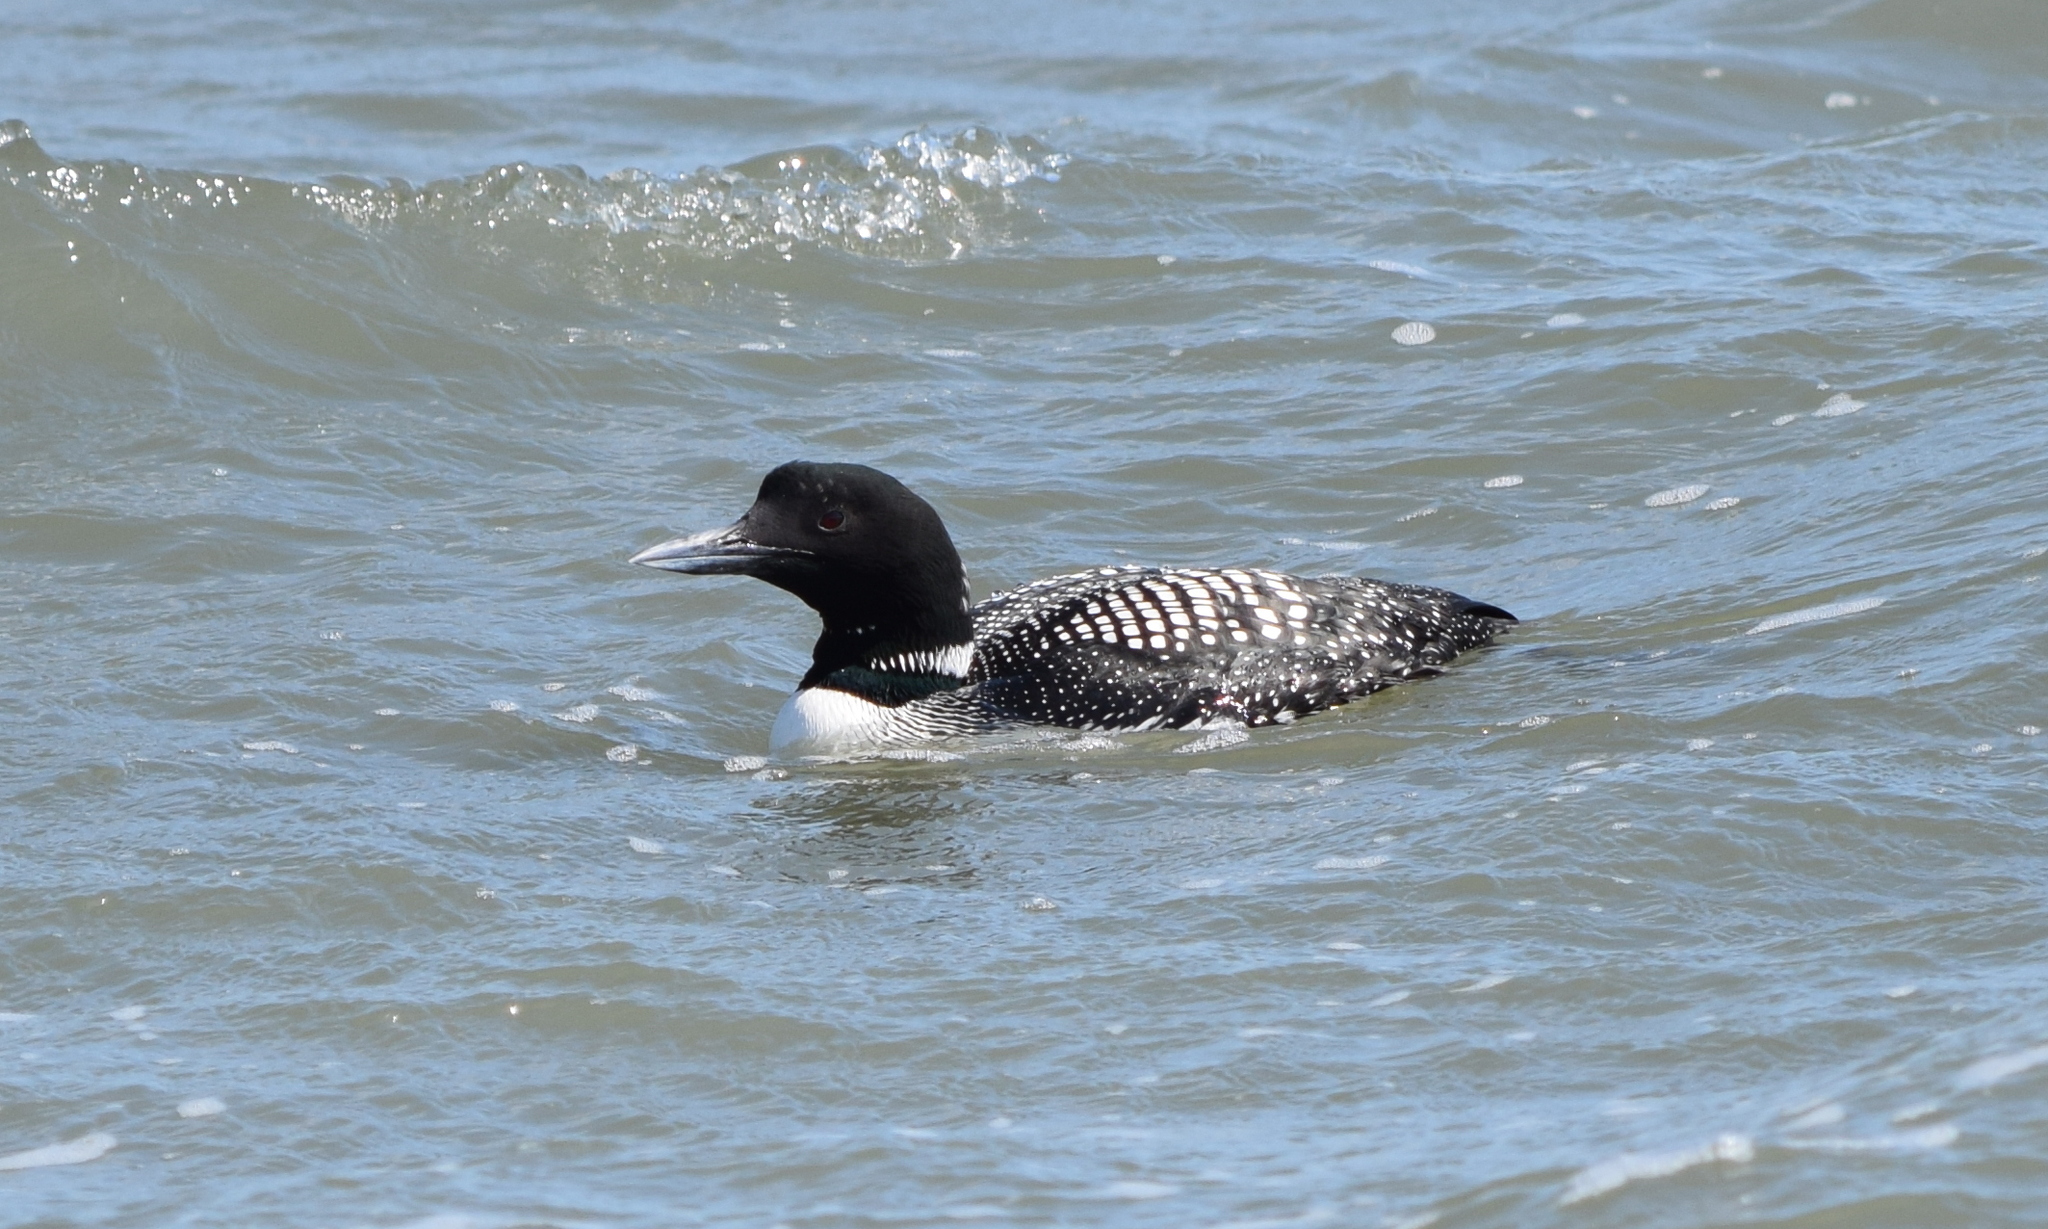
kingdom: Animalia
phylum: Chordata
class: Aves
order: Gaviiformes
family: Gaviidae
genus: Gavia
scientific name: Gavia immer
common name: Common loon
